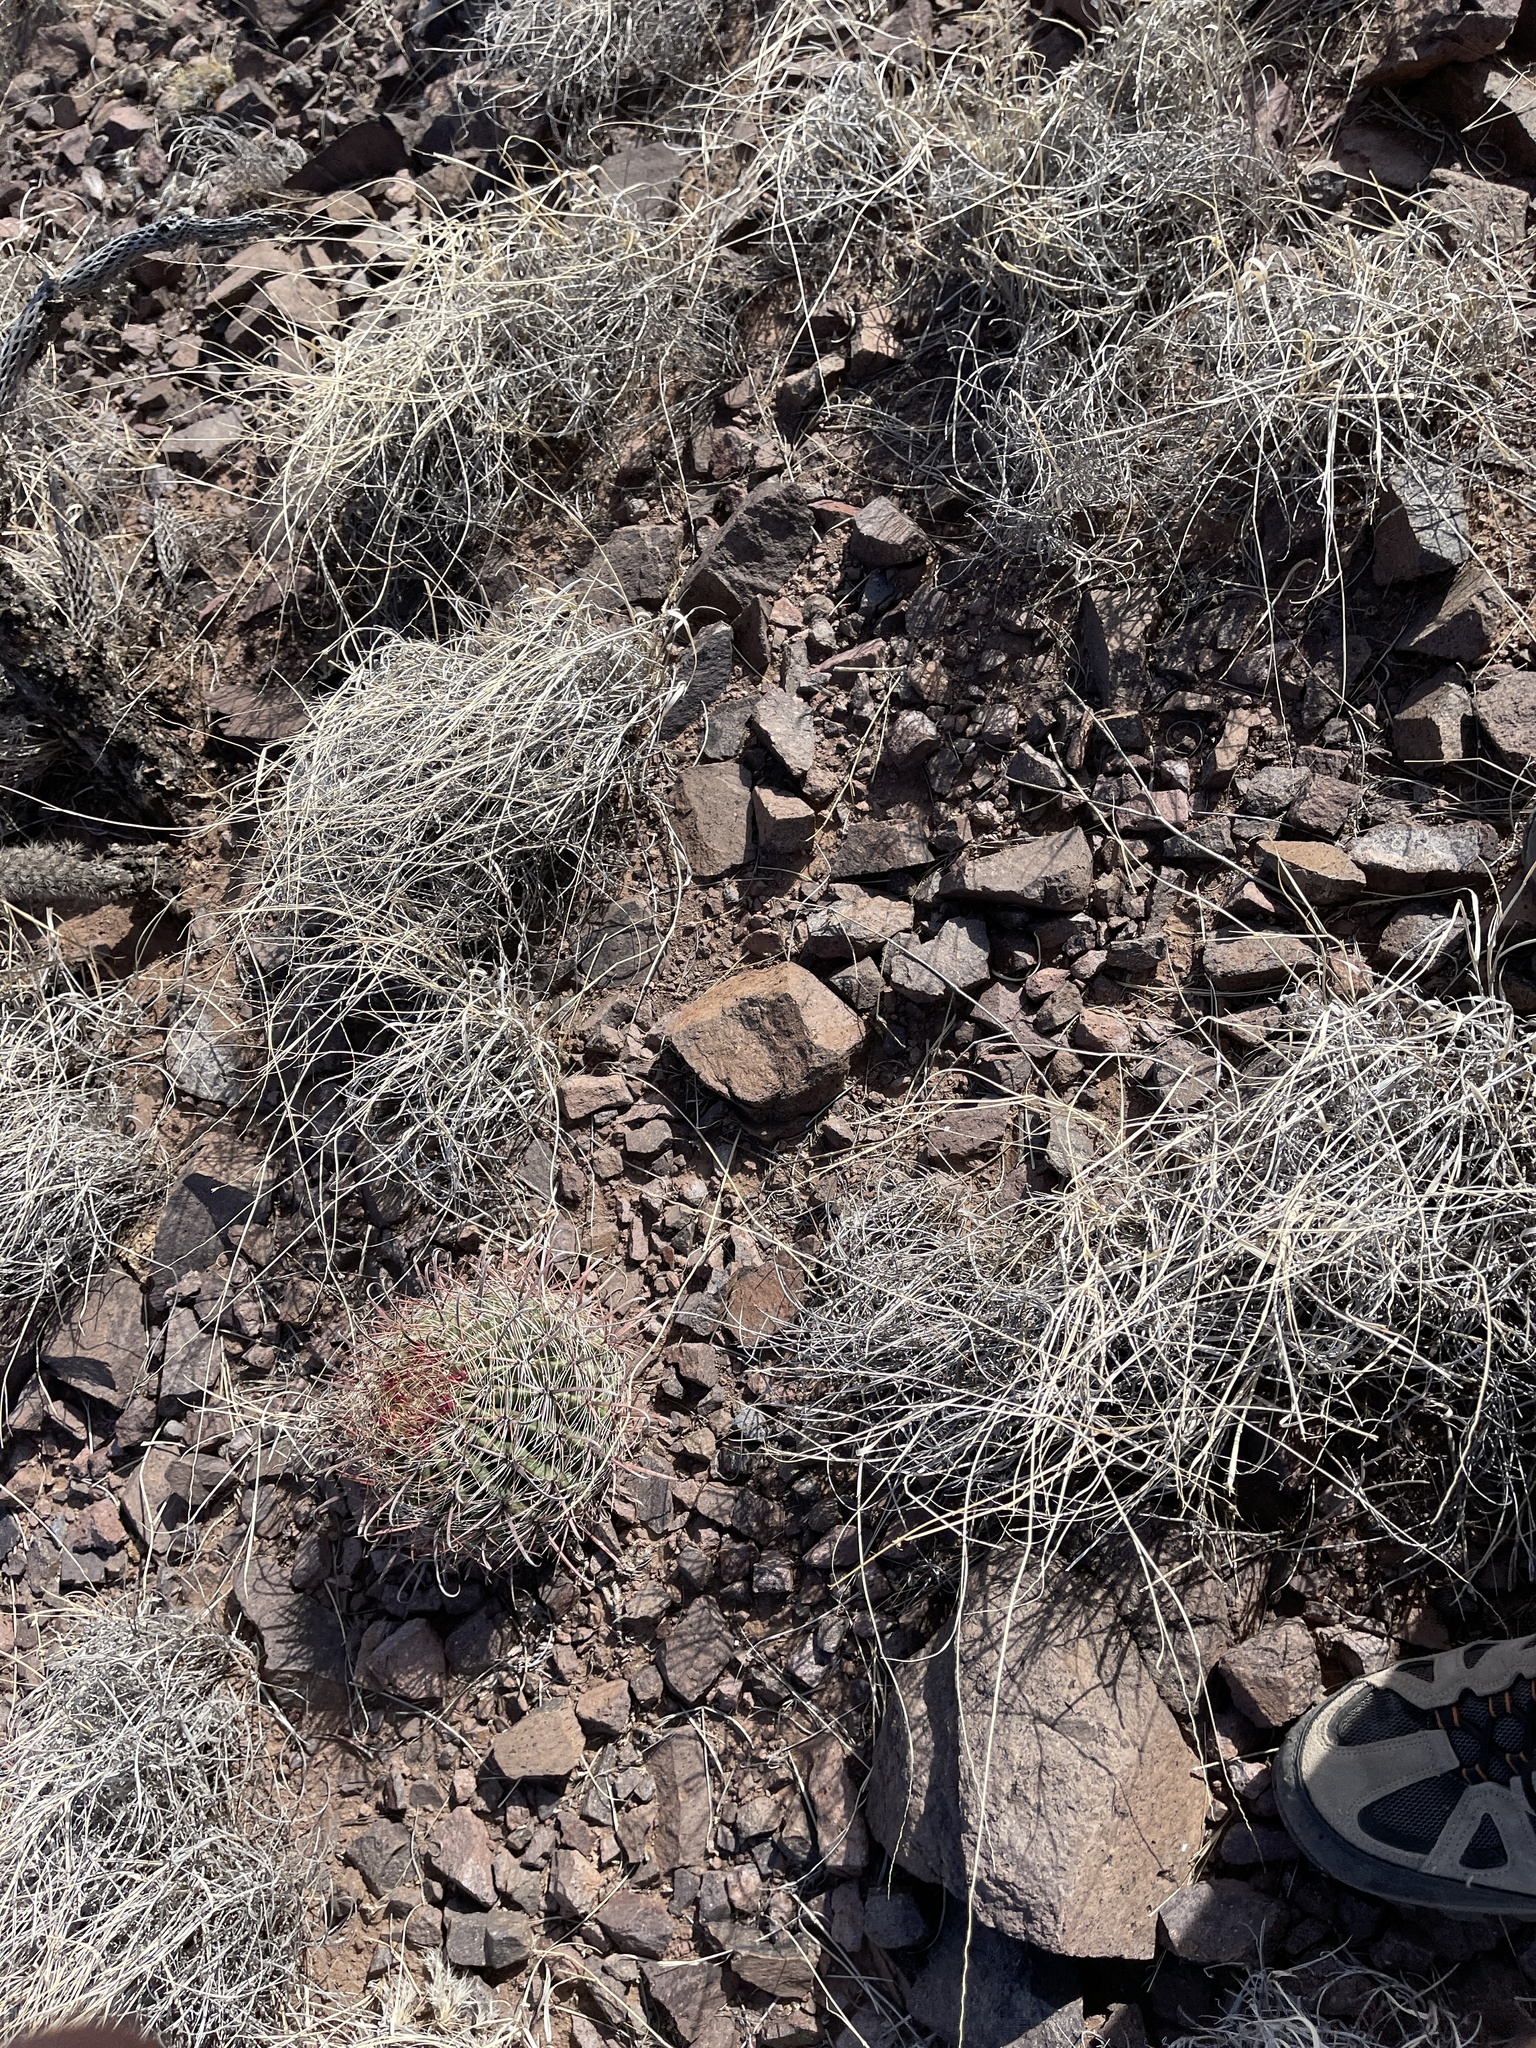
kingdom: Plantae
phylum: Tracheophyta
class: Magnoliopsida
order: Caryophyllales
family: Cactaceae
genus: Ferocactus
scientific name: Ferocactus wislizeni
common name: Candy barrel cactus
